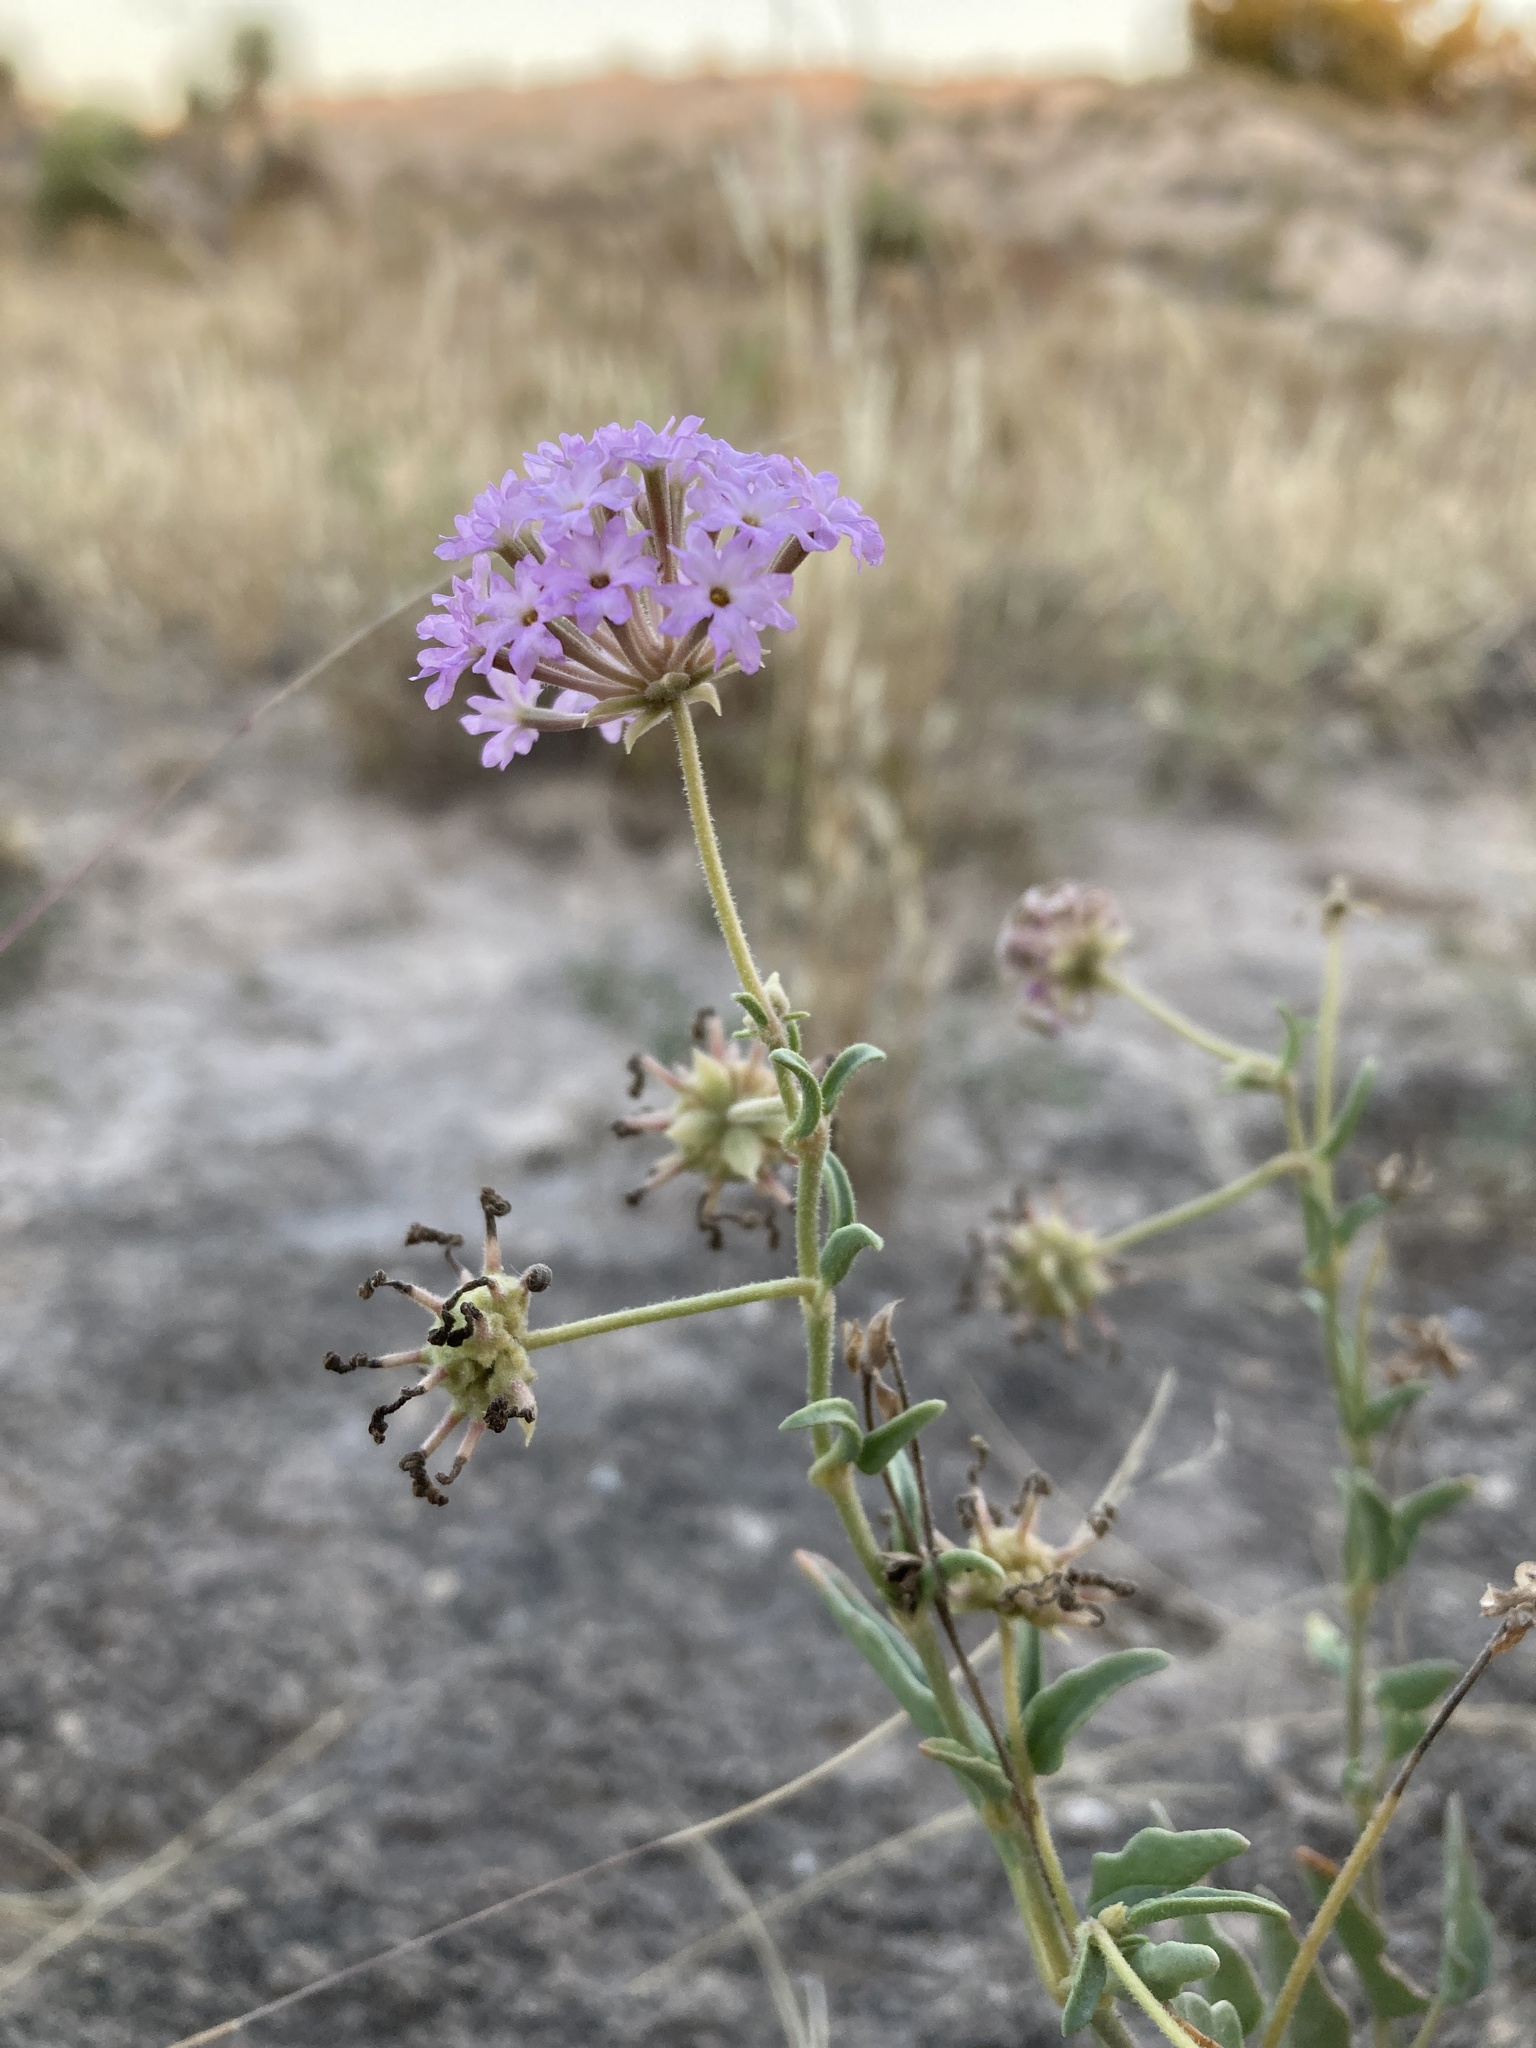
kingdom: Plantae
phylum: Tracheophyta
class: Magnoliopsida
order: Caryophyllales
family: Nyctaginaceae
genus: Abronia
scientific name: Abronia carletonii
